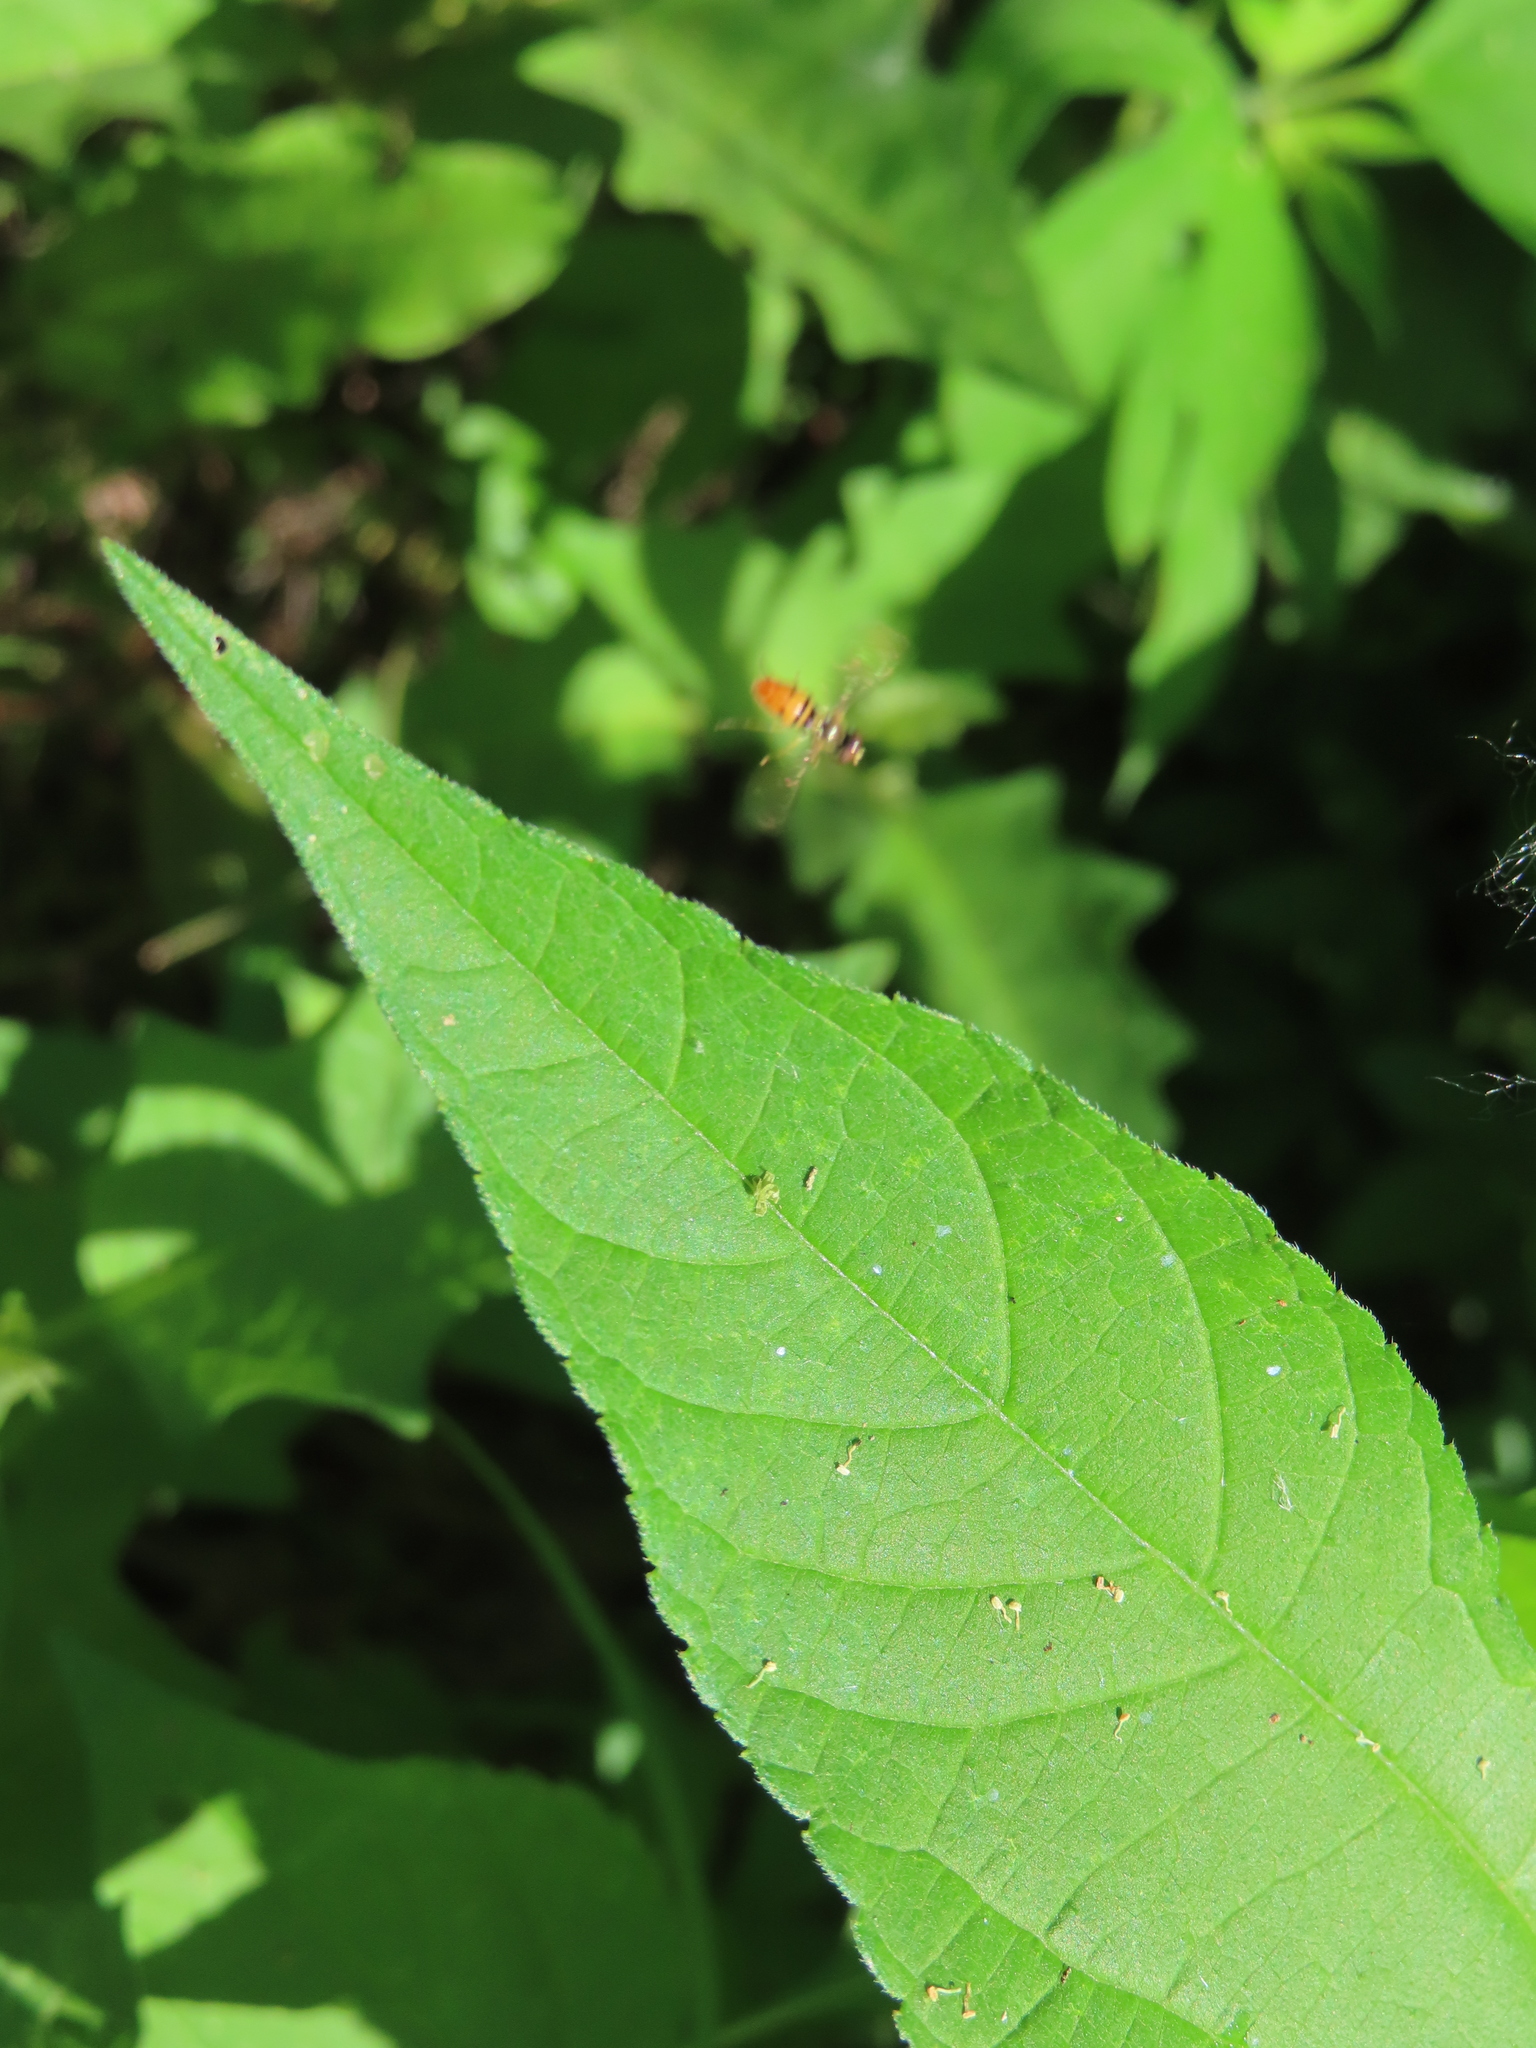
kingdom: Animalia
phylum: Arthropoda
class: Insecta
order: Diptera
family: Syrphidae
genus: Toxomerus
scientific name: Toxomerus marginatus
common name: Syrphid fly
